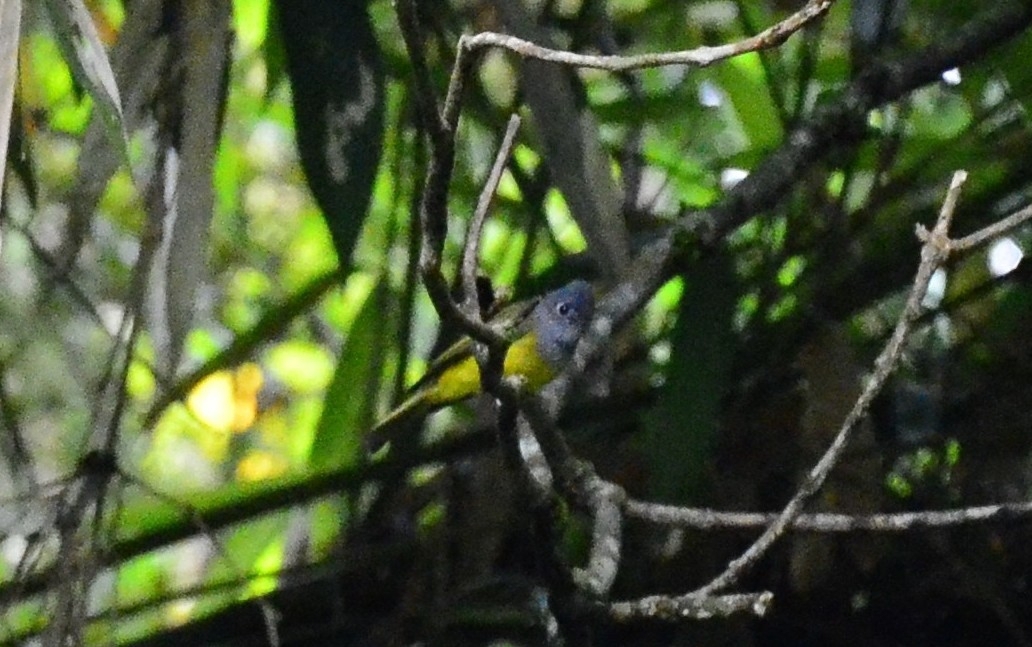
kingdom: Animalia
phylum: Chordata
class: Aves
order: Passeriformes
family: Stenostiridae
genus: Culicicapa
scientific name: Culicicapa ceylonensis
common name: Grey-headed canary-flycatcher
